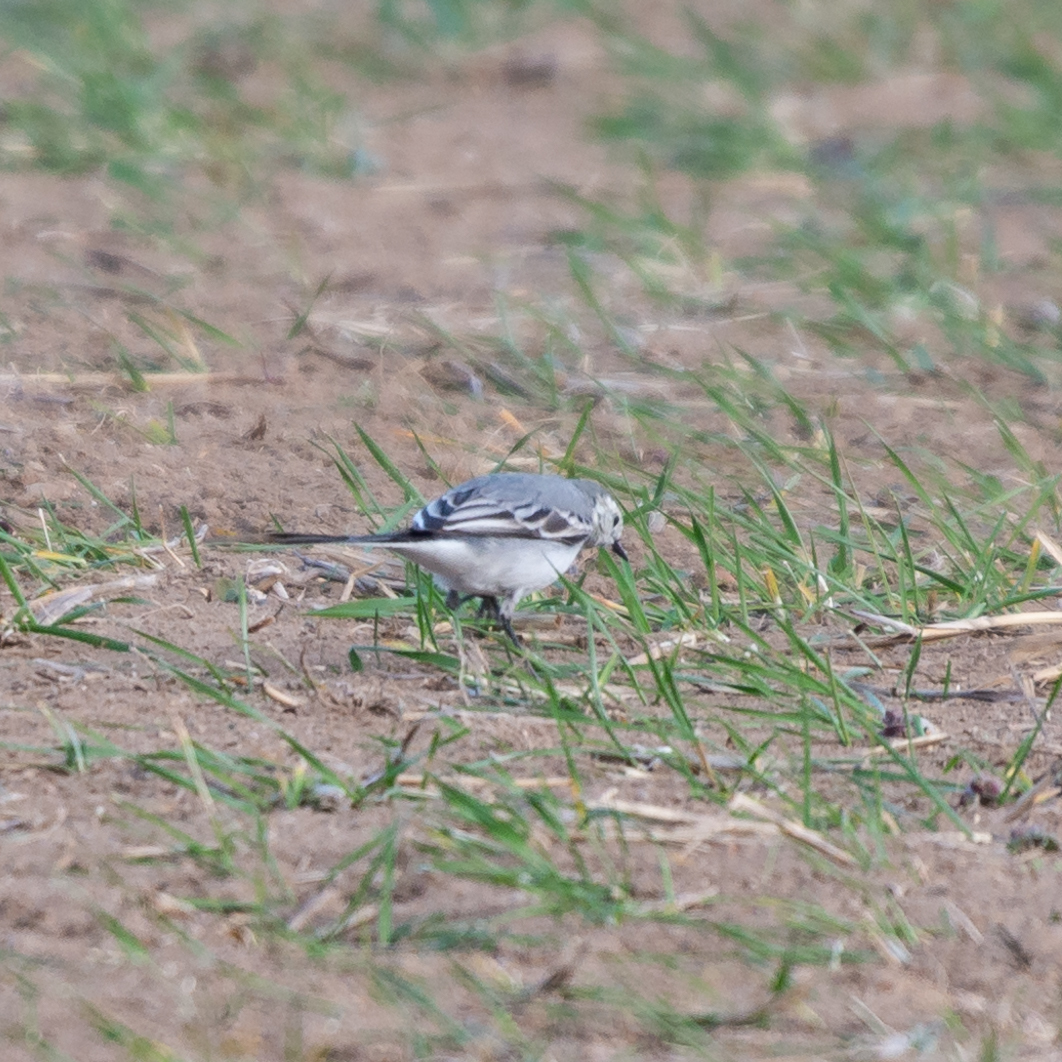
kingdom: Animalia
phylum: Chordata
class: Aves
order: Passeriformes
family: Motacillidae
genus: Motacilla
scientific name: Motacilla alba
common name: White wagtail
